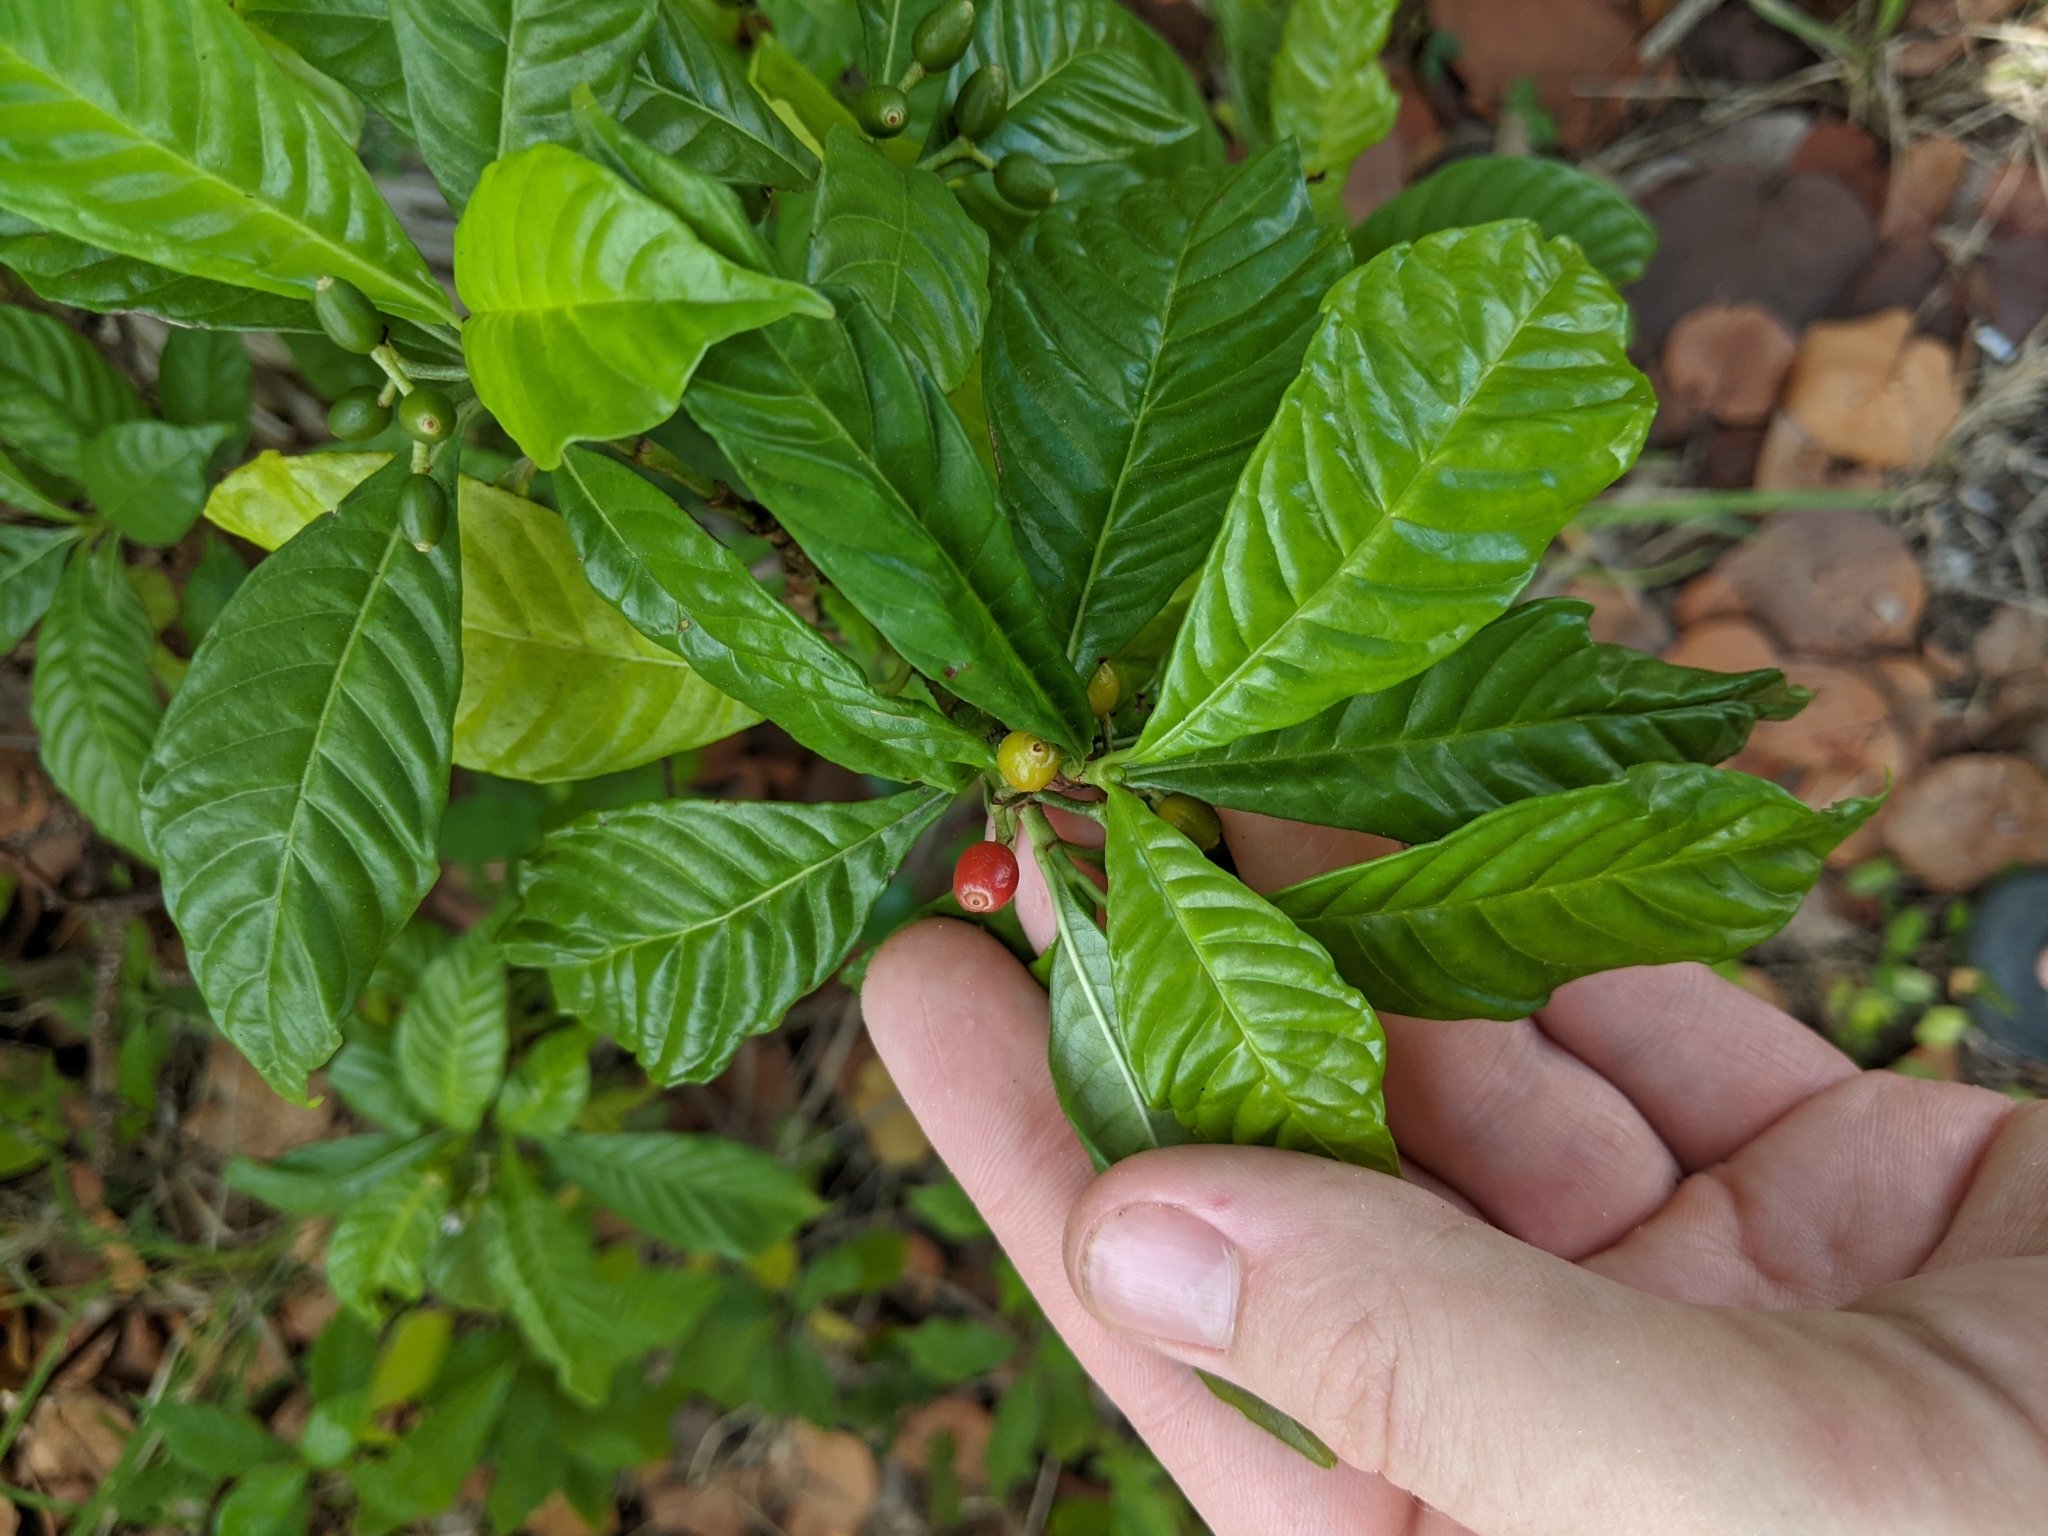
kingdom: Plantae
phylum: Tracheophyta
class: Magnoliopsida
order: Gentianales
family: Rubiaceae
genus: Psychotria
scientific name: Psychotria nervosa
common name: Bastard cankerberry
